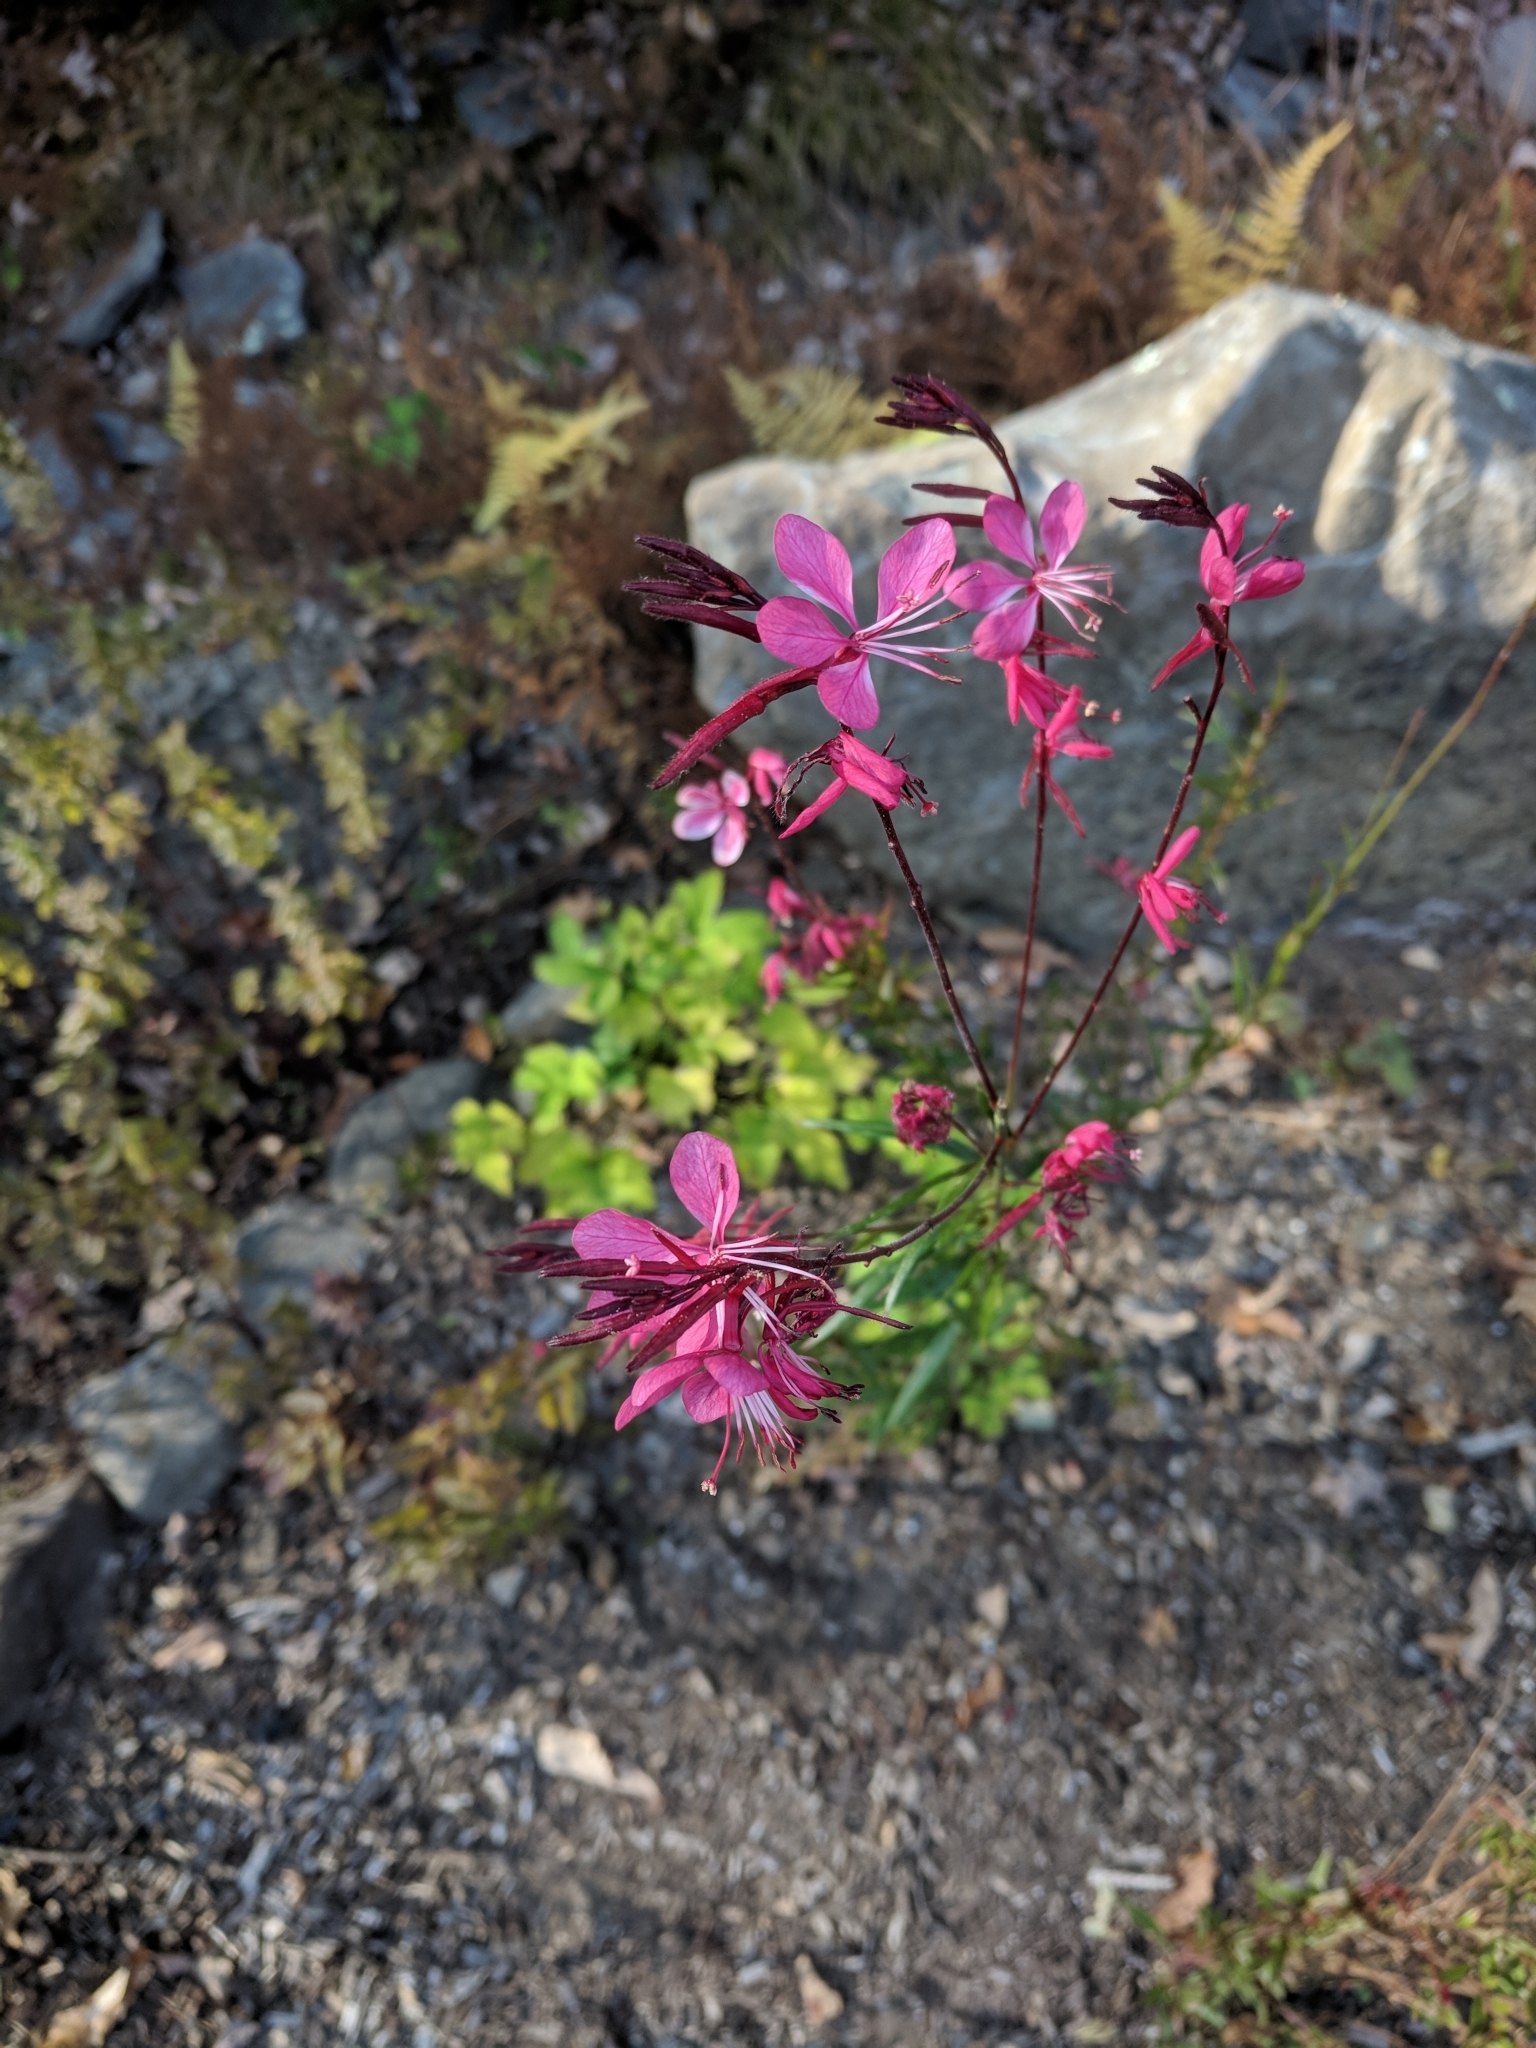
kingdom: Plantae
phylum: Tracheophyta
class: Magnoliopsida
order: Myrtales
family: Onagraceae
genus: Oenothera
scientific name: Oenothera lindheimeri
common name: Lindheimer's beeblossom
